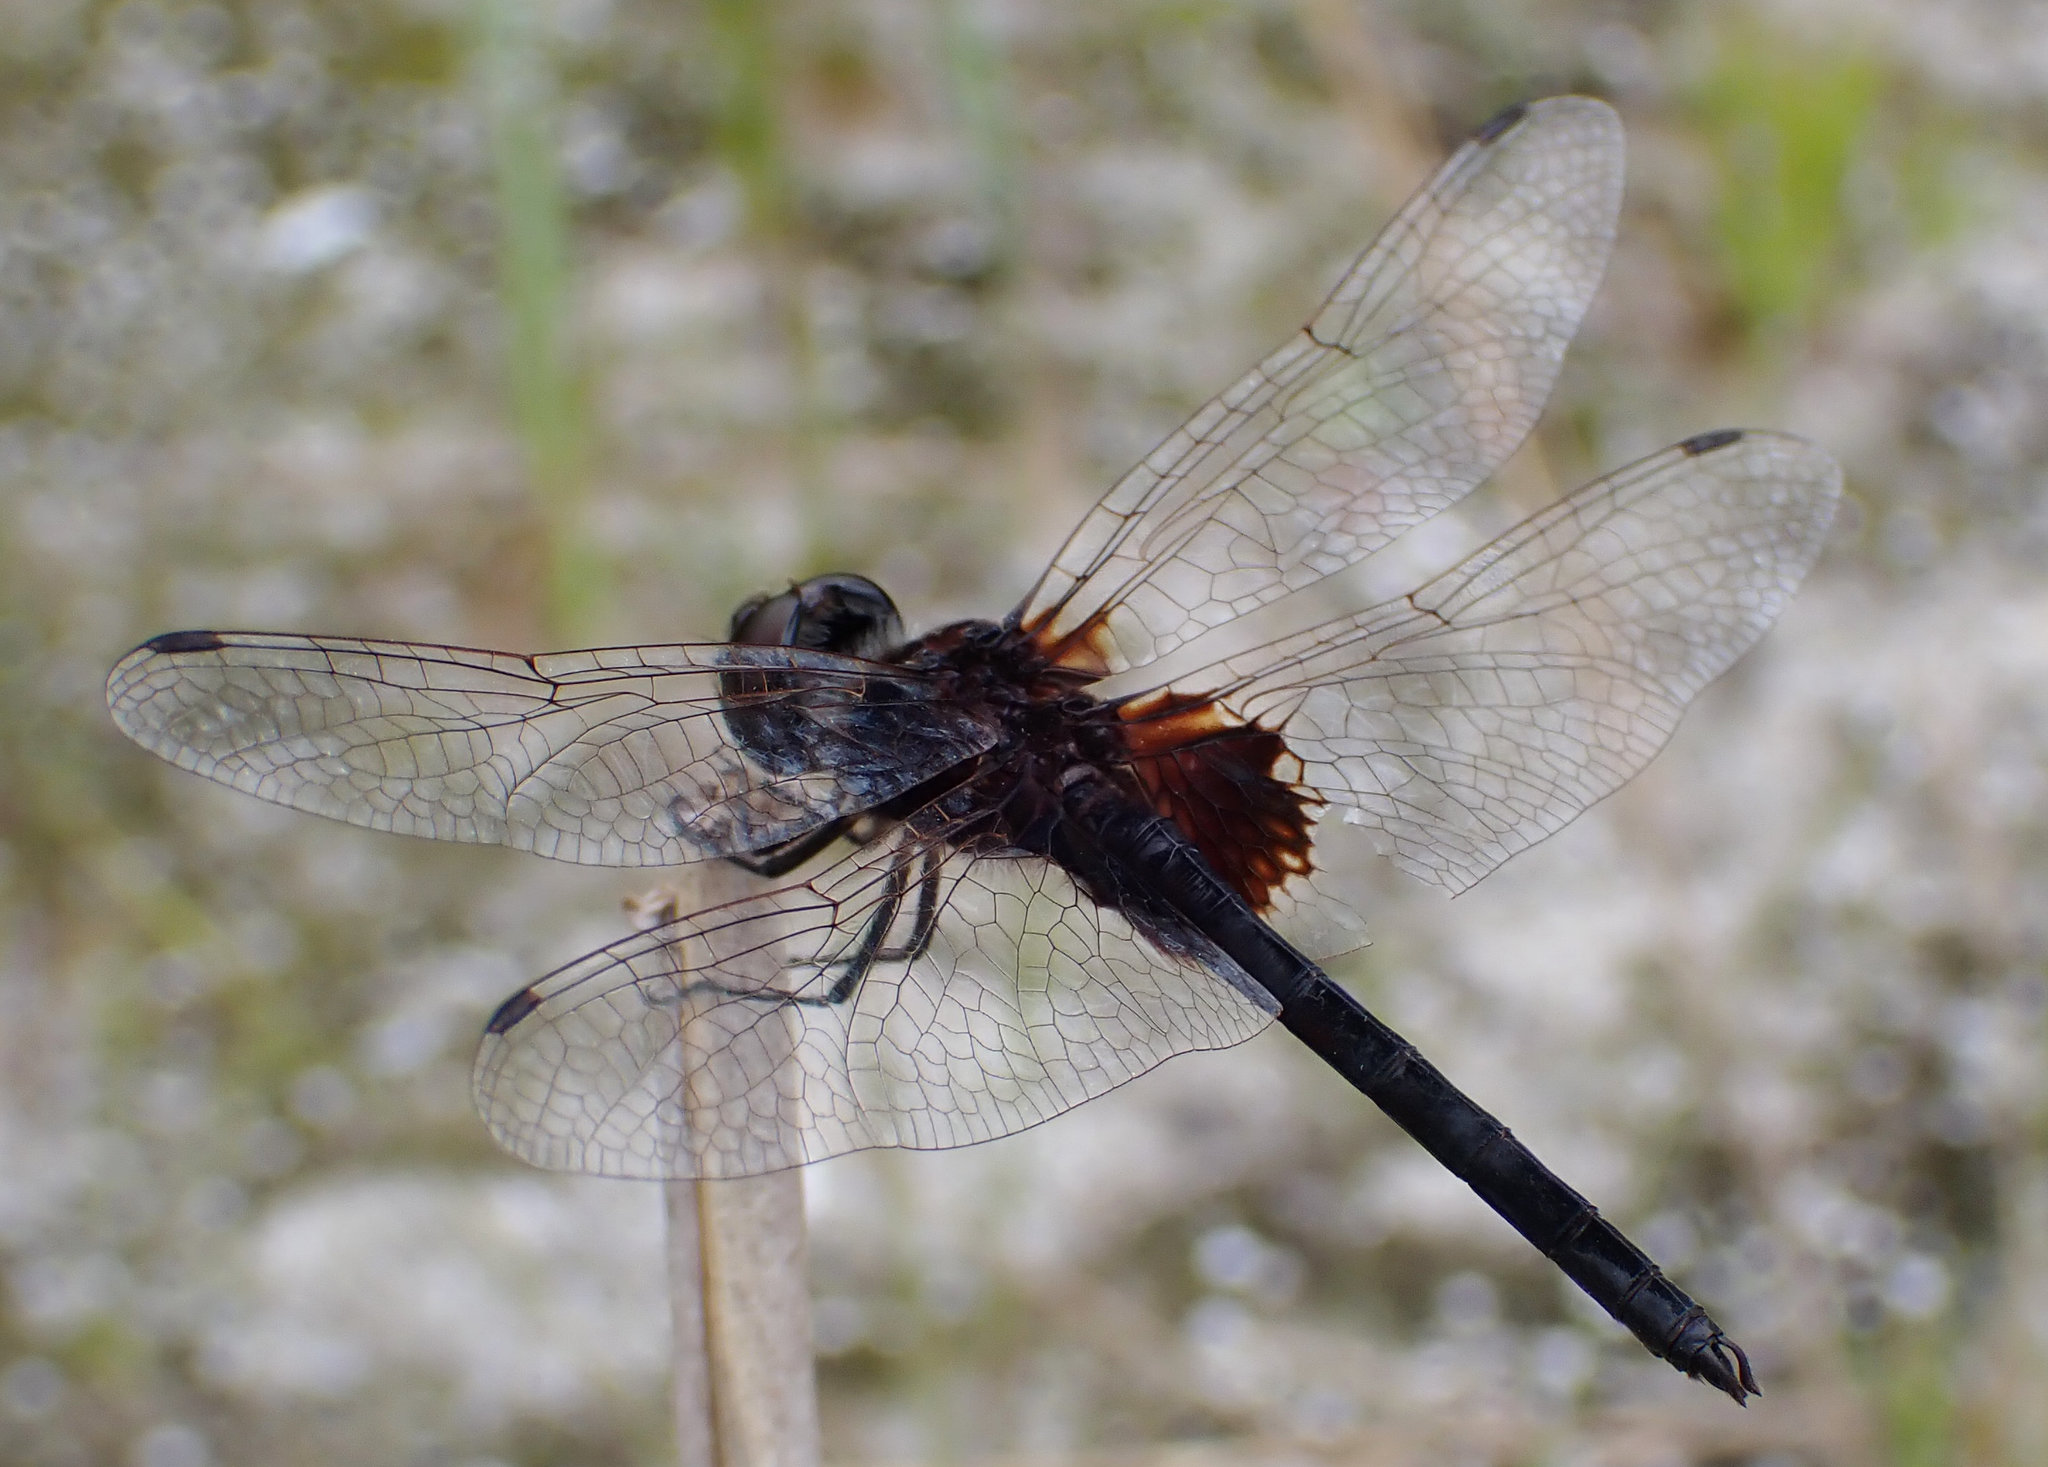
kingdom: Animalia
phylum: Arthropoda
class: Insecta
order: Odonata
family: Libellulidae
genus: Macrodiplax
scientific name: Macrodiplax balteata
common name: Marl pennant
